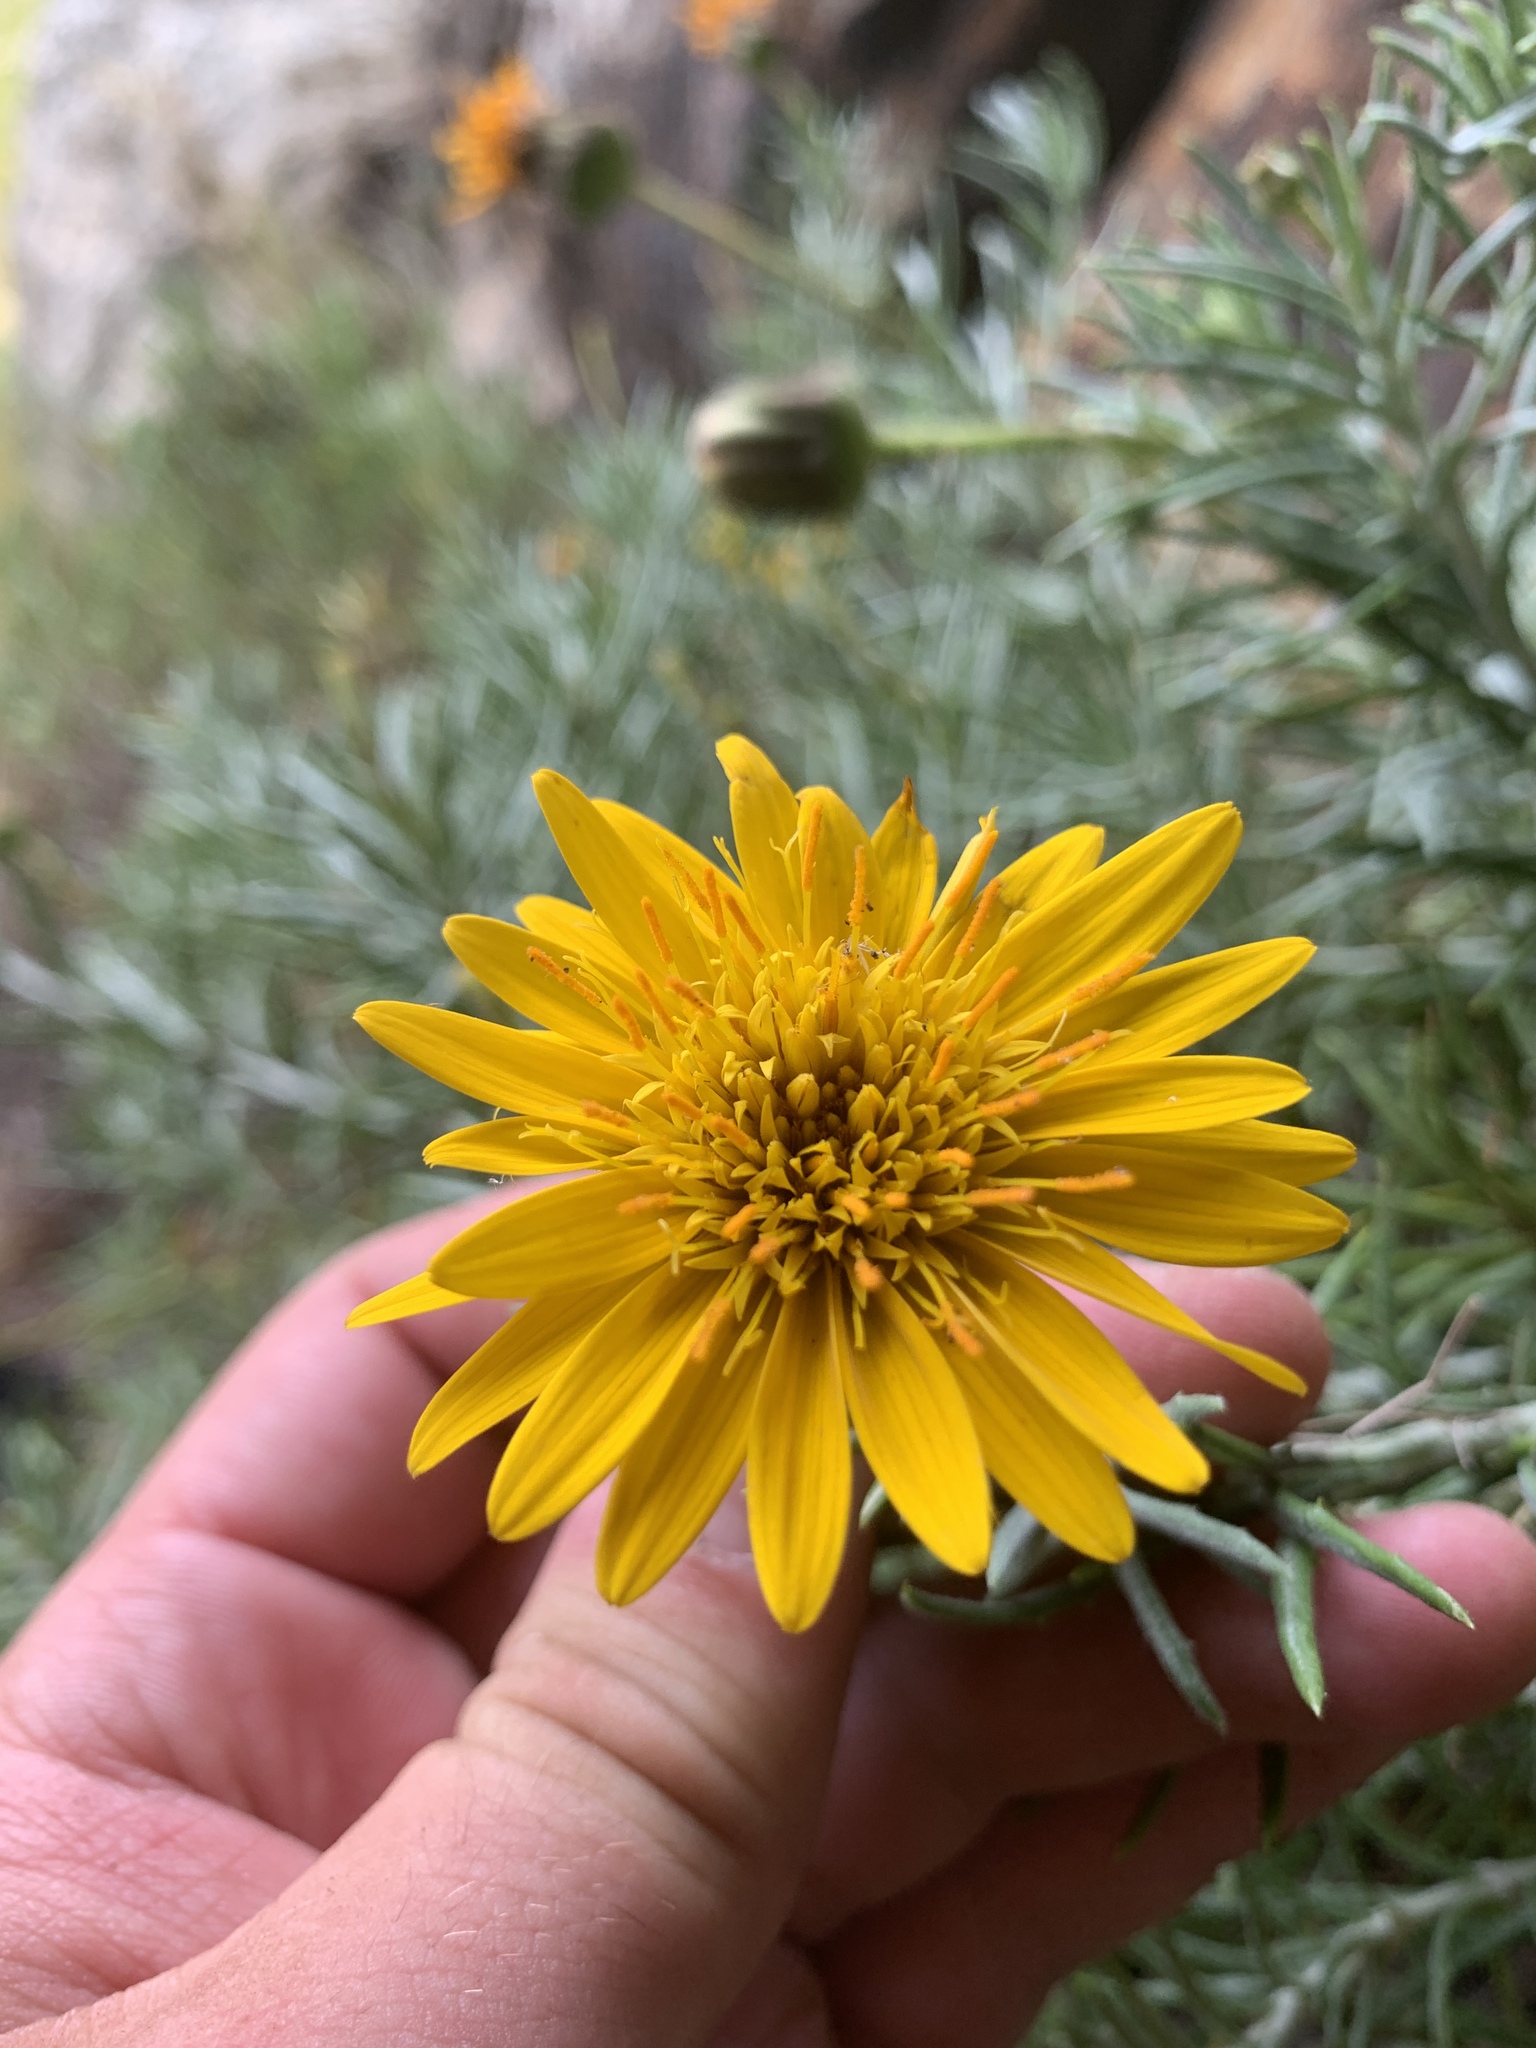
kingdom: Plantae
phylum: Tracheophyta
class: Magnoliopsida
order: Asterales
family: Asteraceae
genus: Heterolepis
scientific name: Heterolepis aliena
